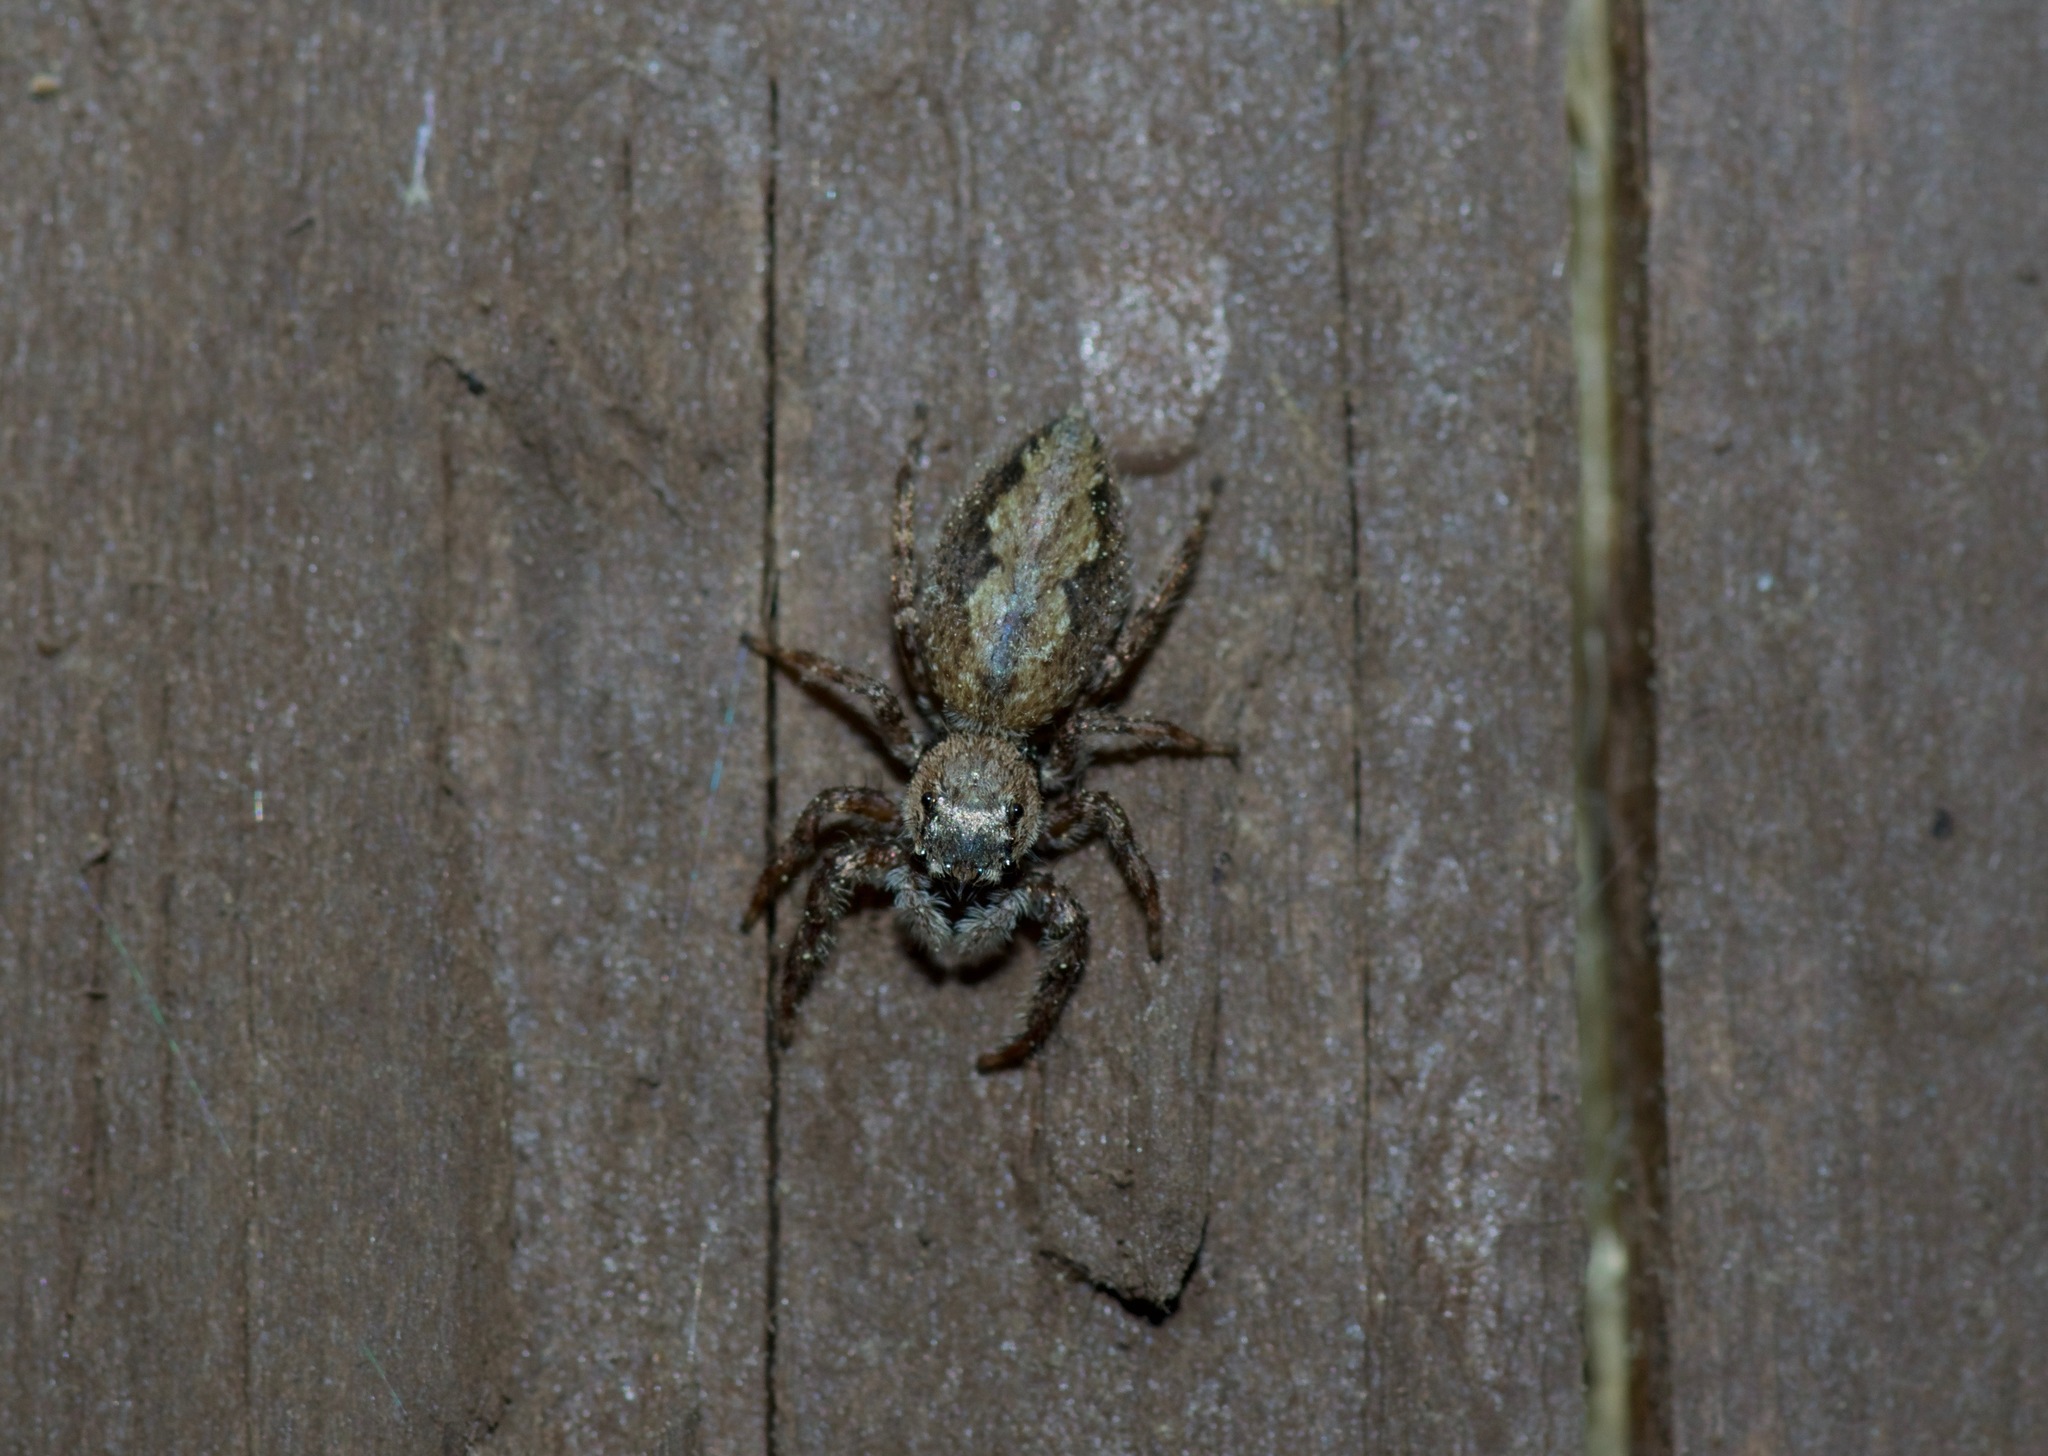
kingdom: Animalia
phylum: Arthropoda
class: Arachnida
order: Araneae
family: Salticidae
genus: Platycryptus
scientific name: Platycryptus undatus
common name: Tan jumping spider
